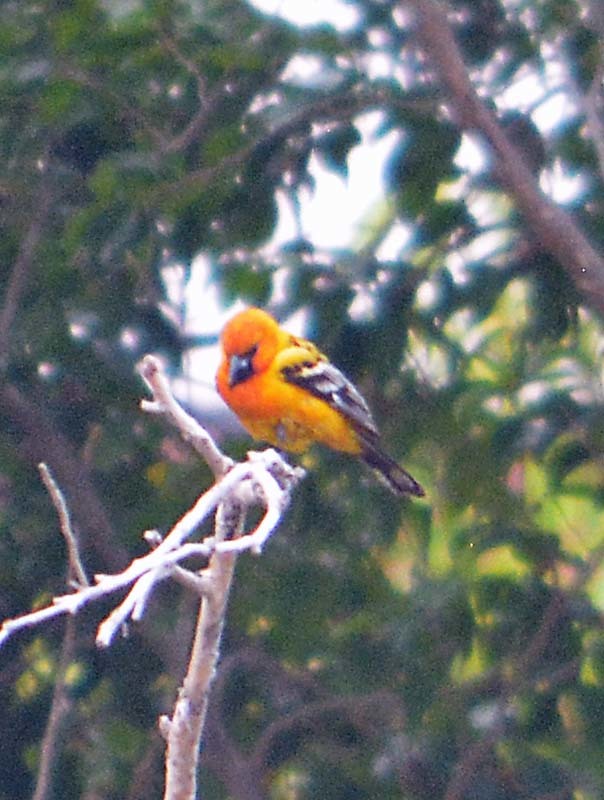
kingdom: Animalia
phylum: Chordata
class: Aves
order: Passeriformes
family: Icteridae
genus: Icterus
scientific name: Icterus pustulatus
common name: Streak-backed oriole
